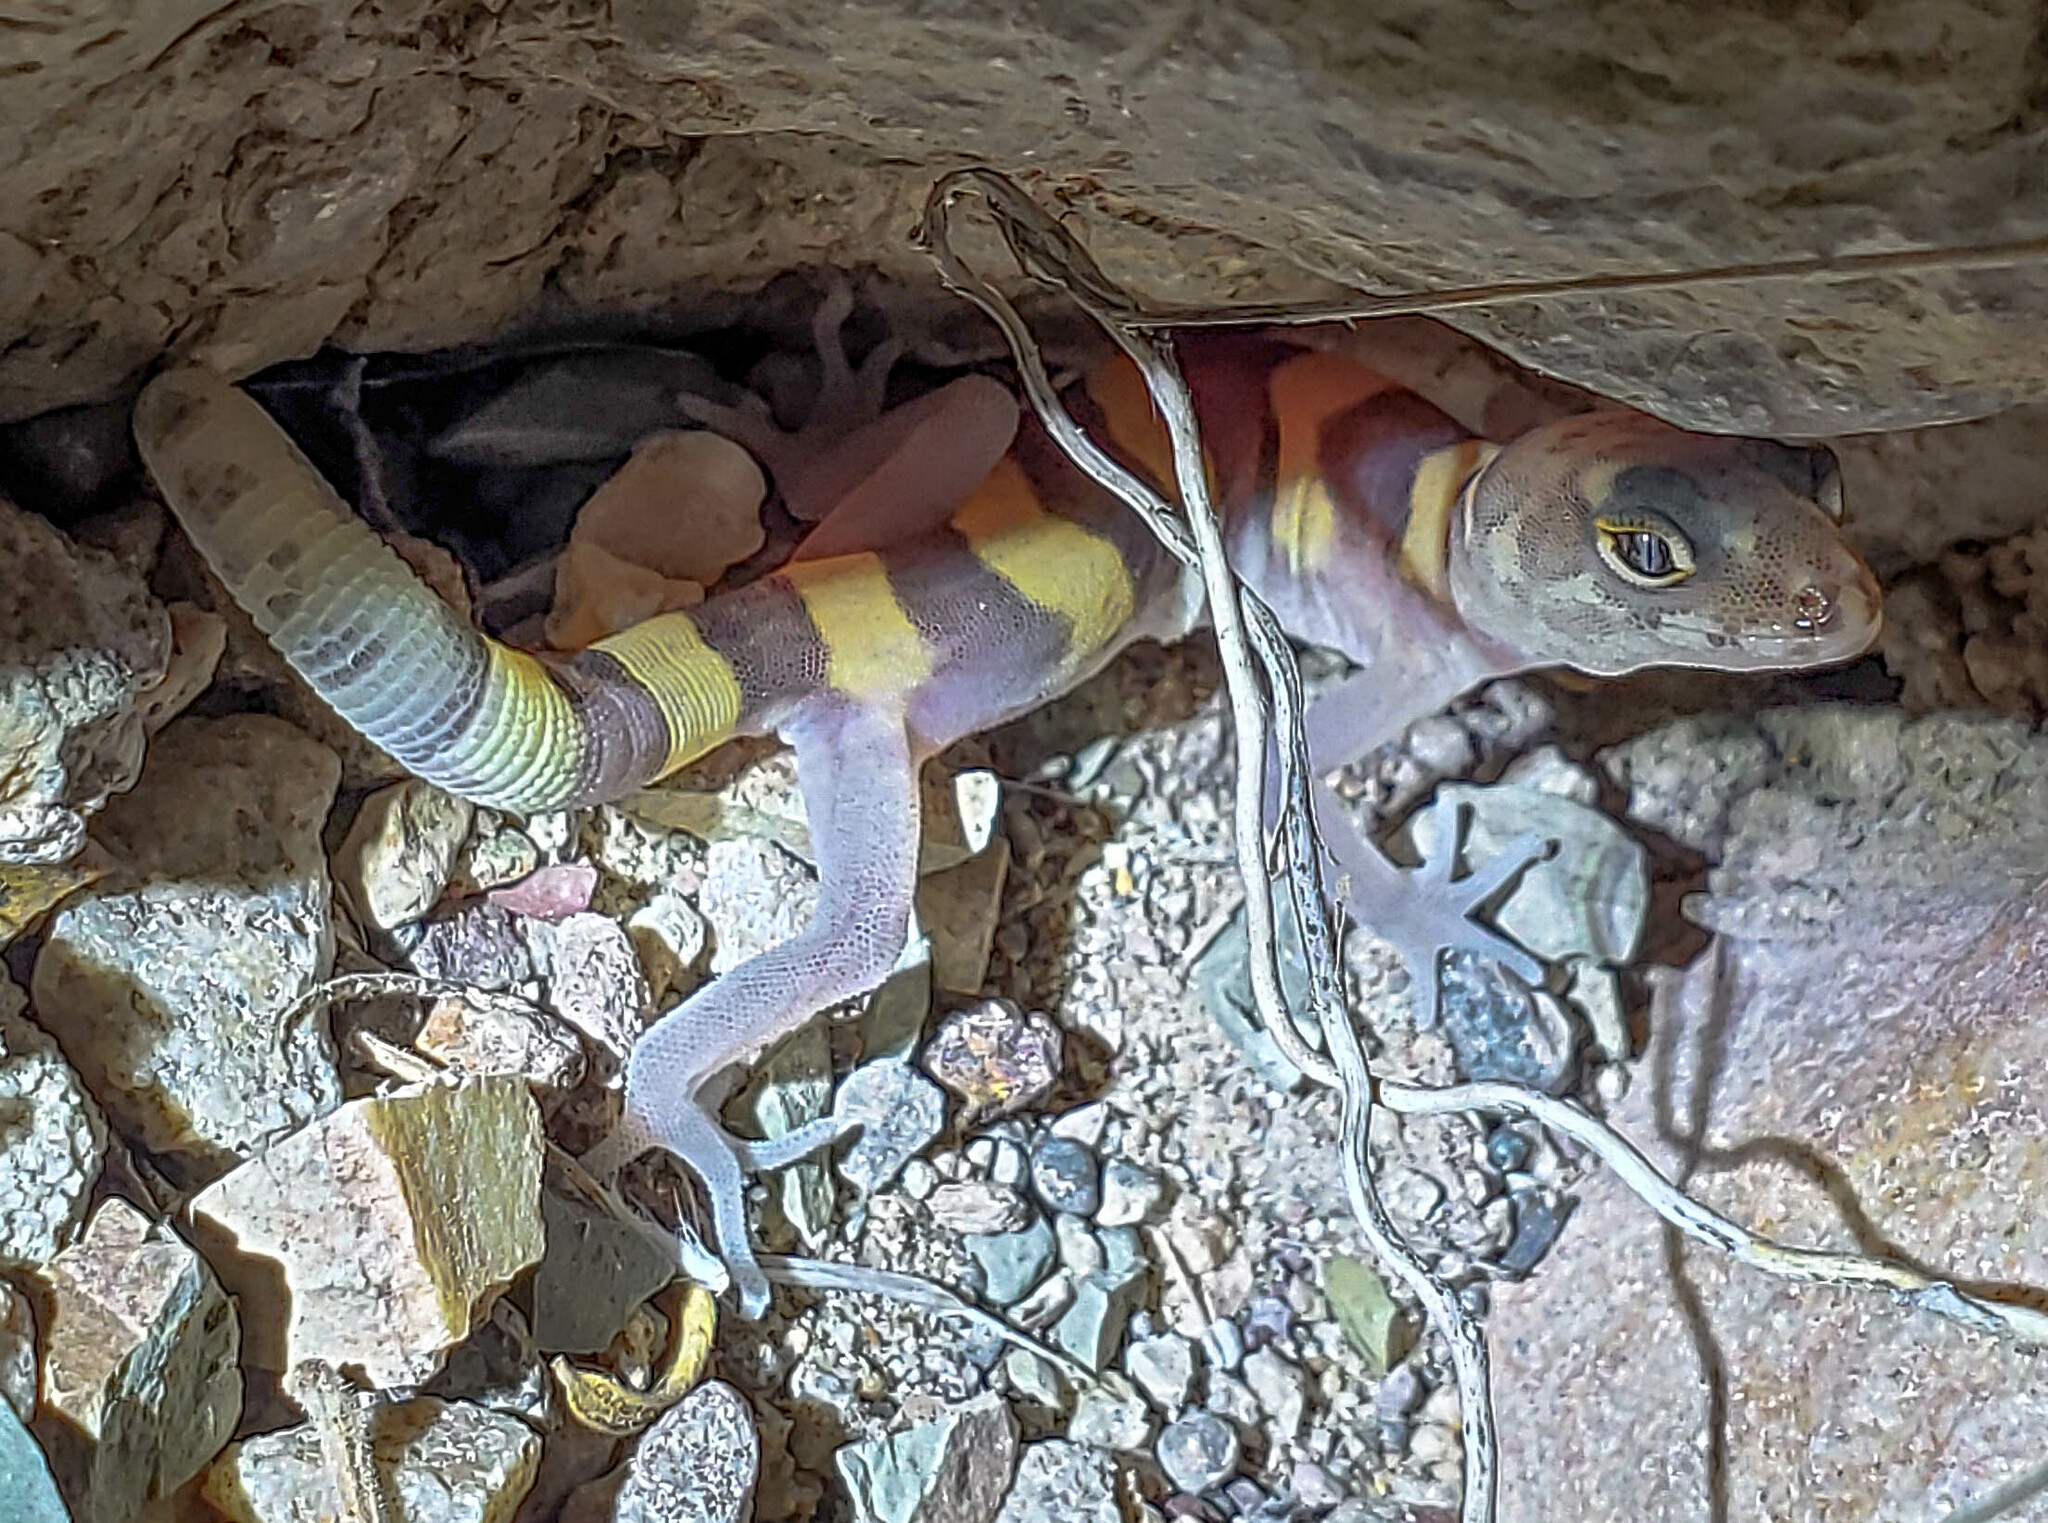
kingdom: Animalia
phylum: Chordata
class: Squamata
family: Eublepharidae
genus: Coleonyx
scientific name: Coleonyx brevis
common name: Texas banded gecko
